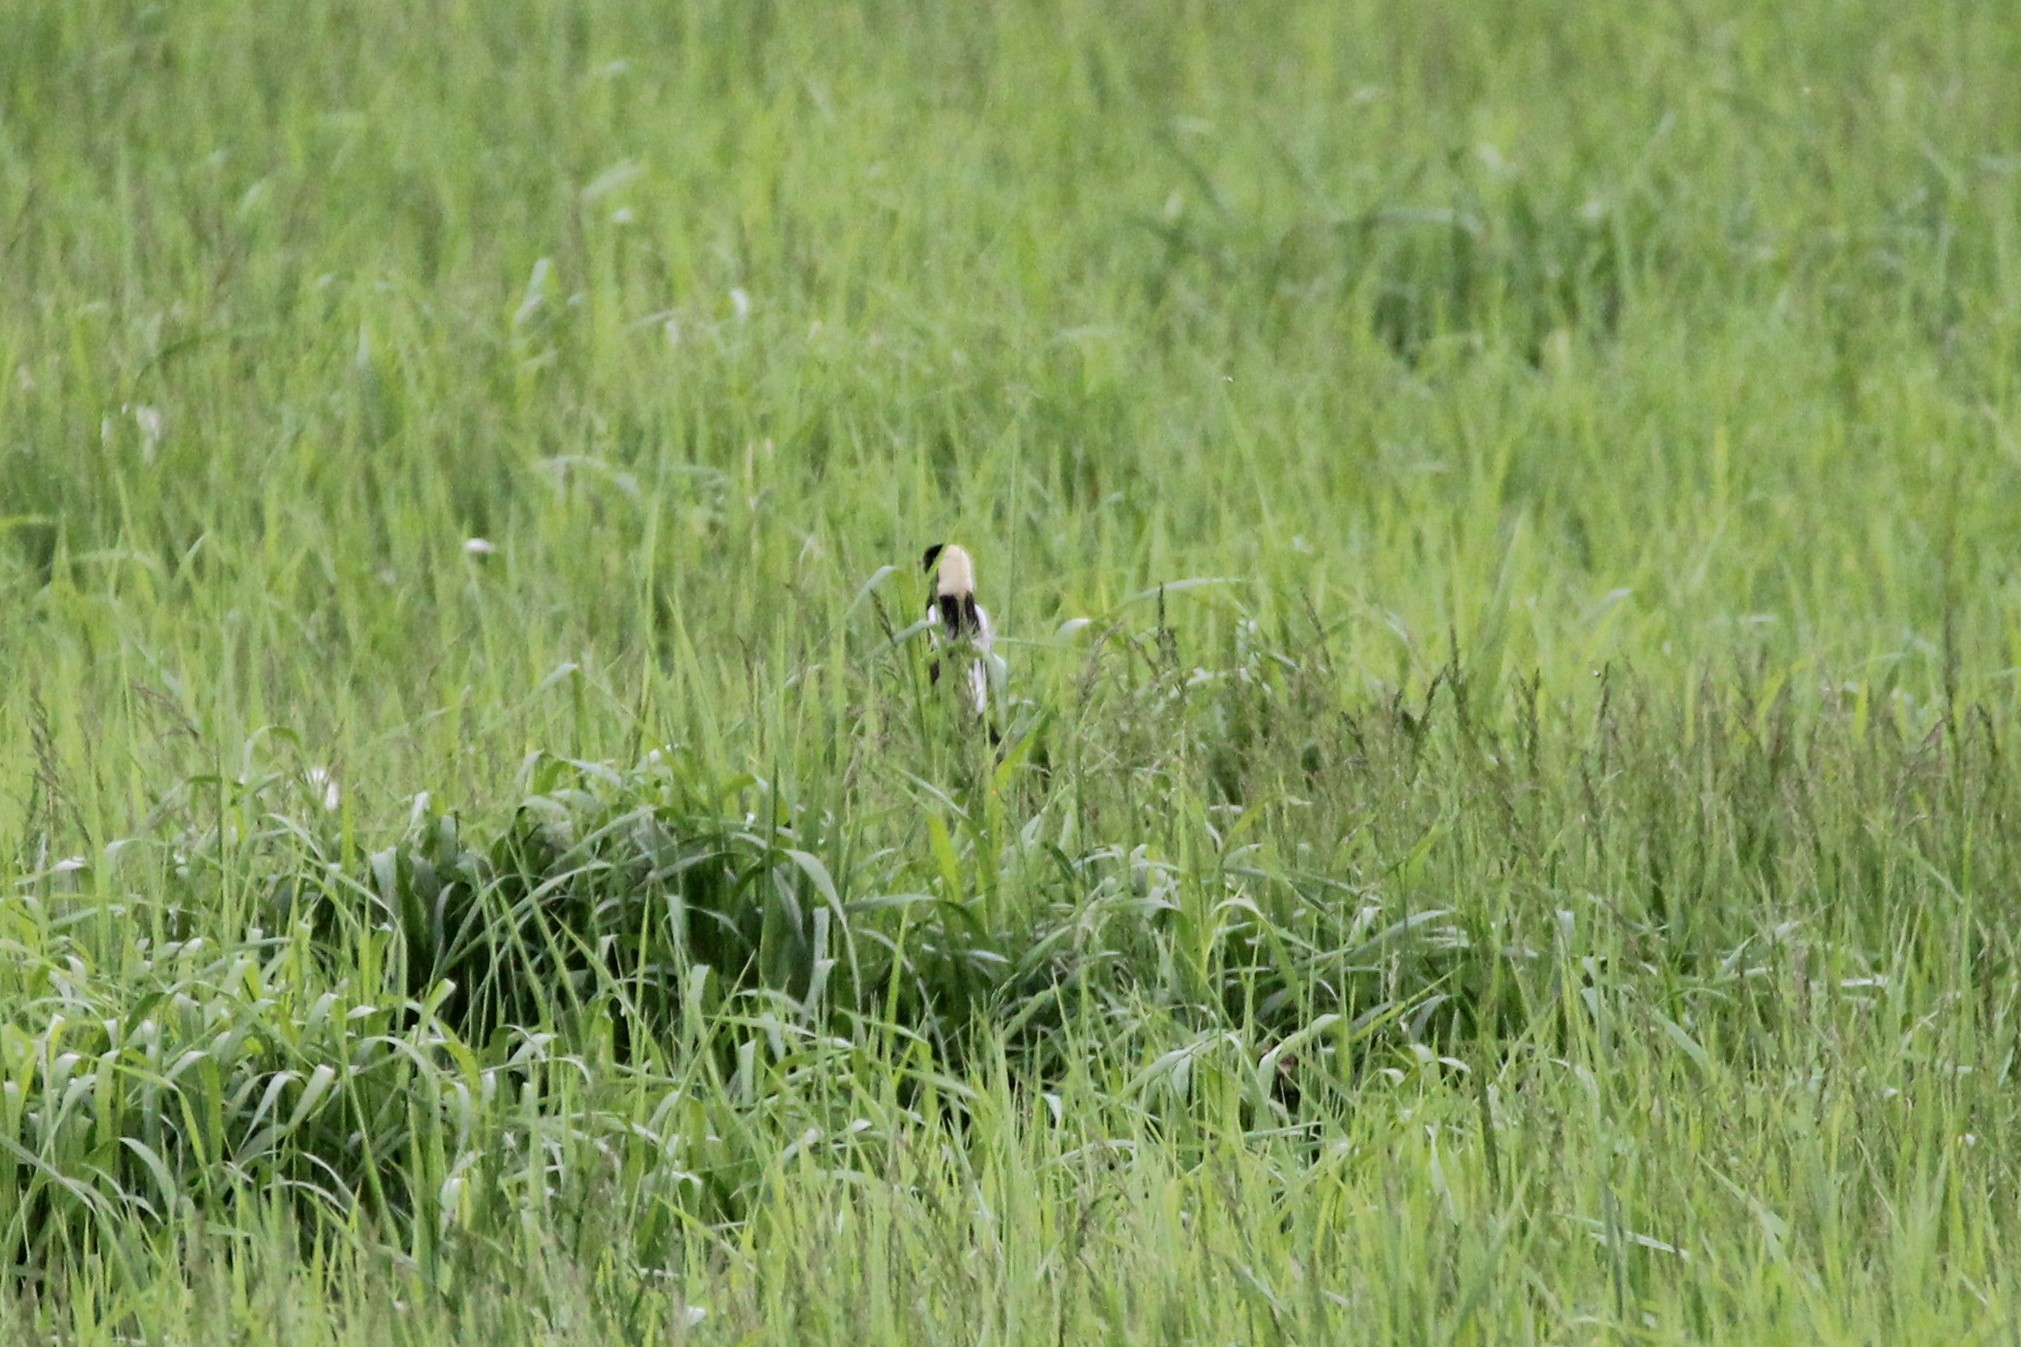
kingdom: Animalia
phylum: Chordata
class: Aves
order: Passeriformes
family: Icteridae
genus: Dolichonyx
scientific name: Dolichonyx oryzivorus
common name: Bobolink
